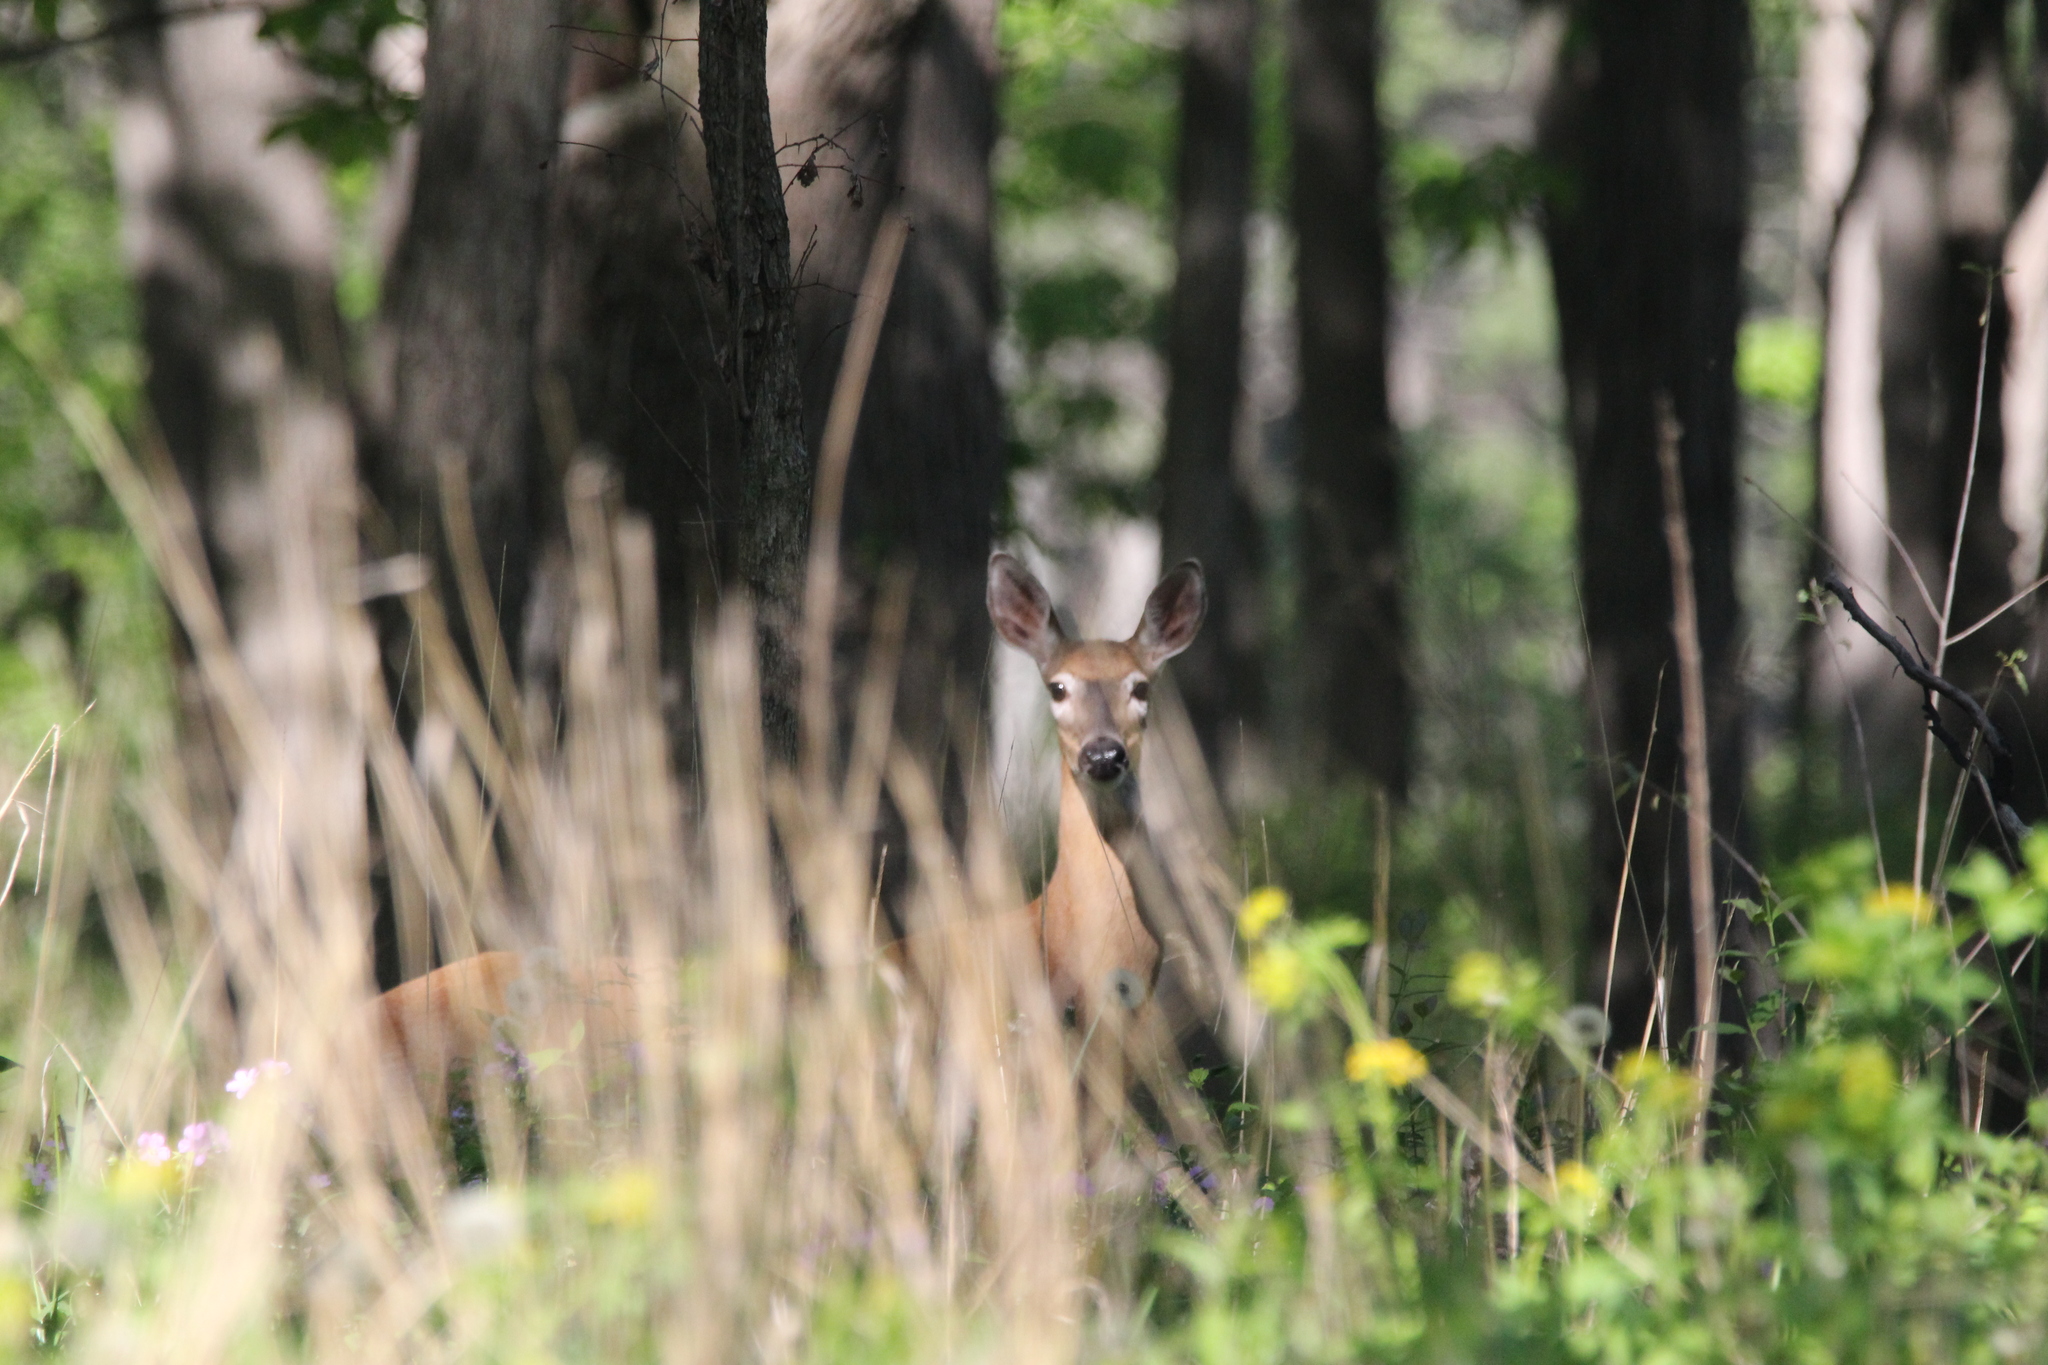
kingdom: Animalia
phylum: Chordata
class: Mammalia
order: Artiodactyla
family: Cervidae
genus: Odocoileus
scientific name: Odocoileus virginianus
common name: White-tailed deer
